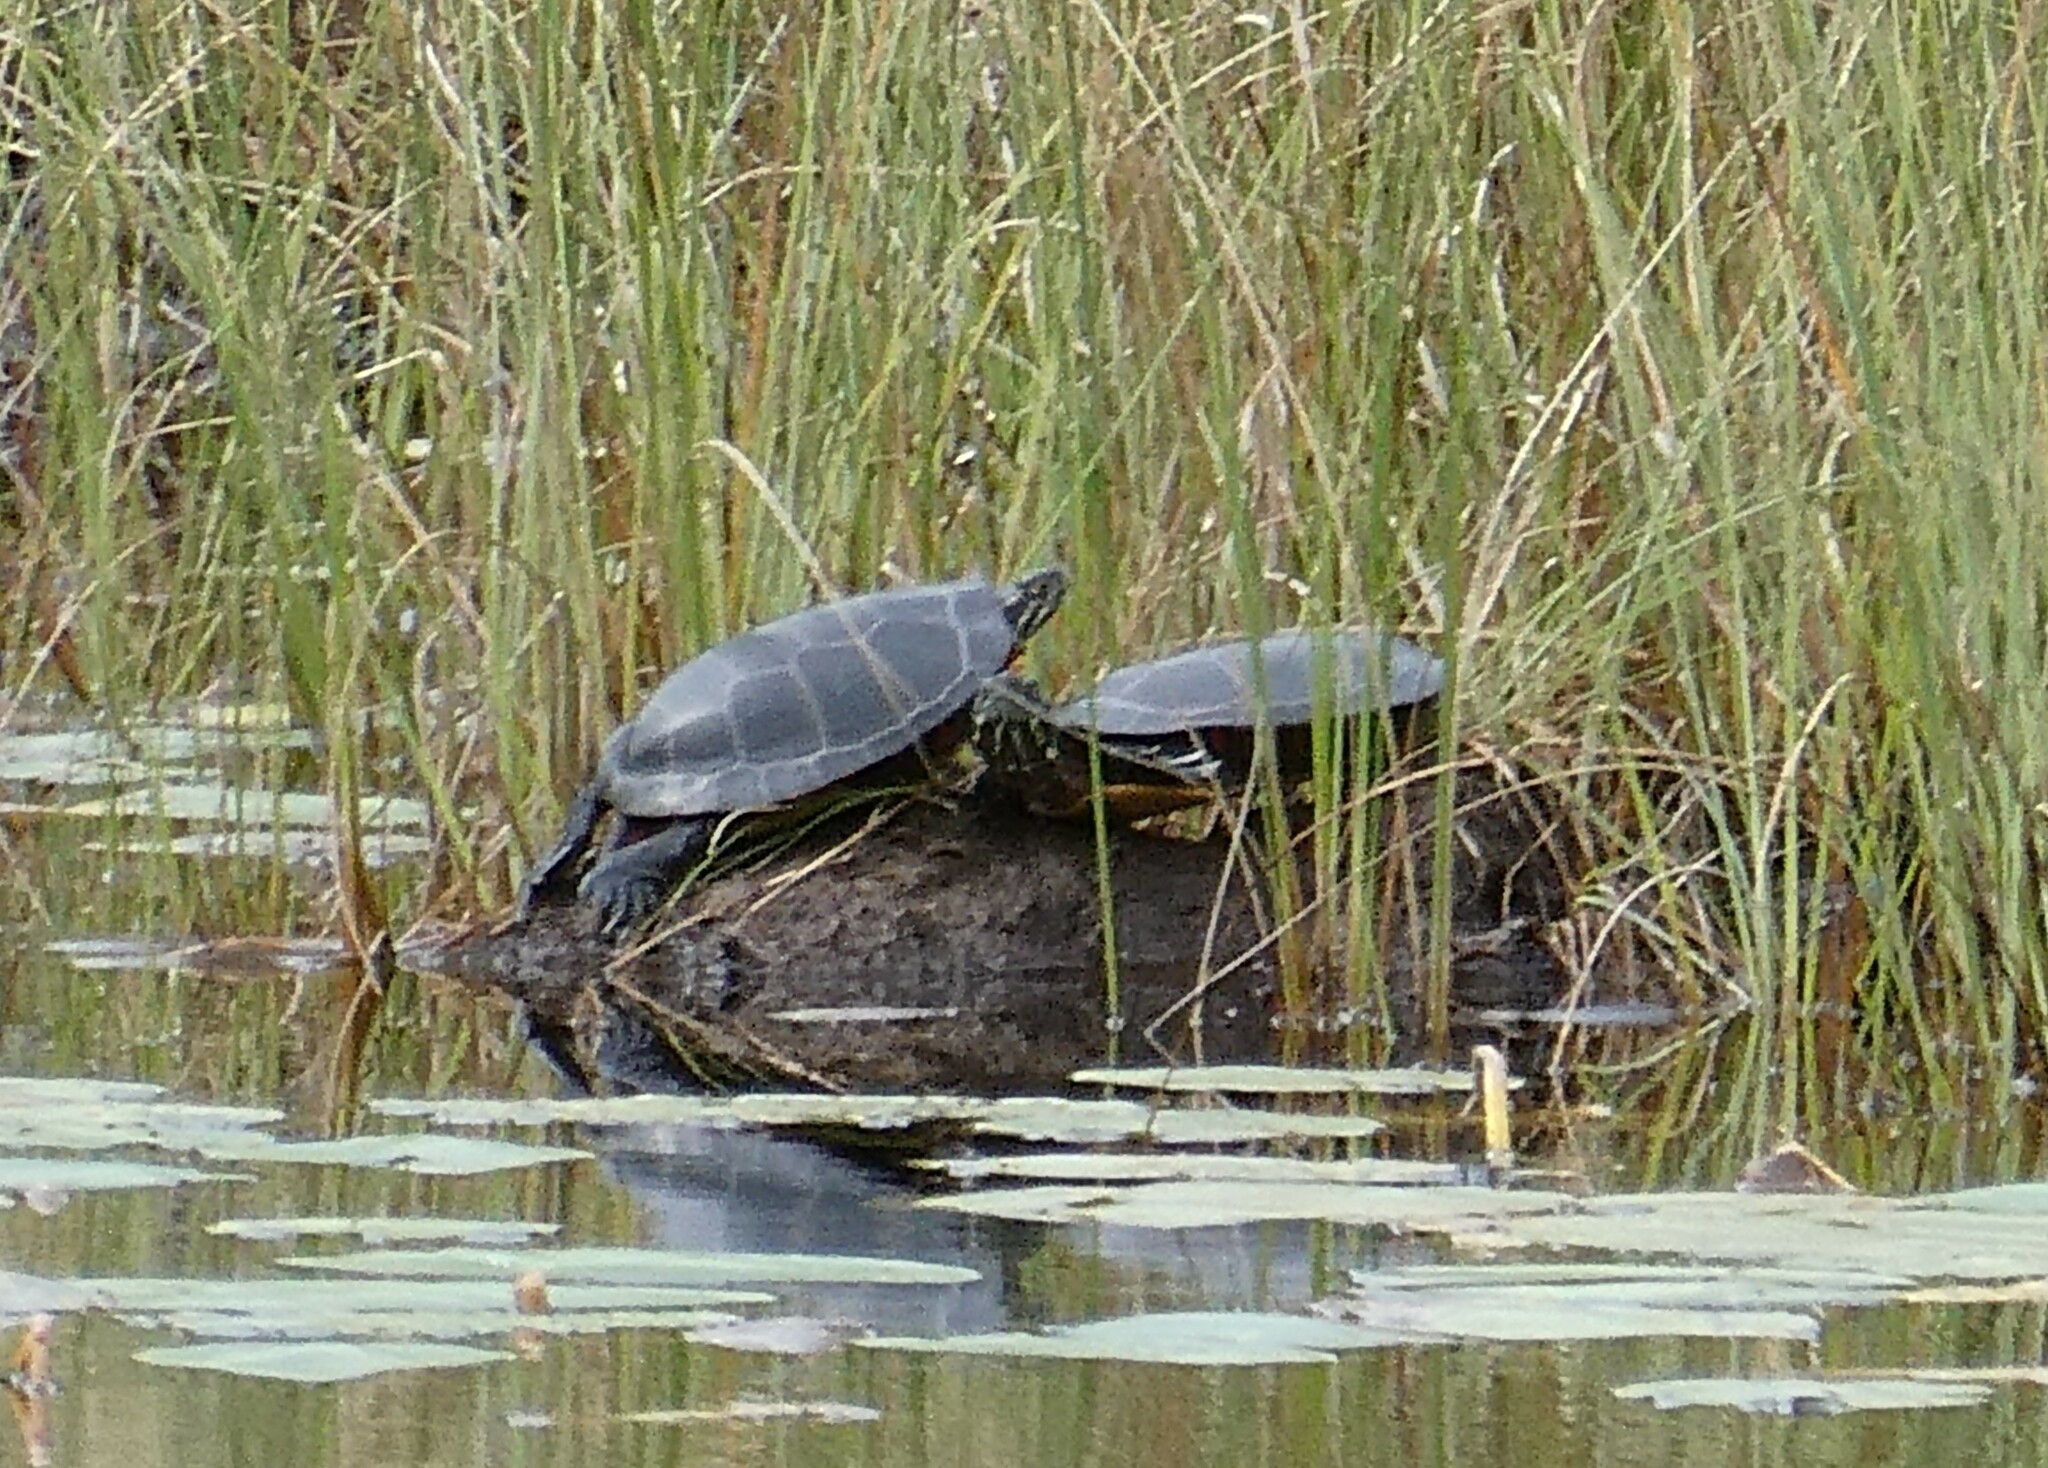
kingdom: Animalia
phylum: Chordata
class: Testudines
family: Emydidae
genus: Chrysemys
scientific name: Chrysemys picta
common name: Painted turtle
